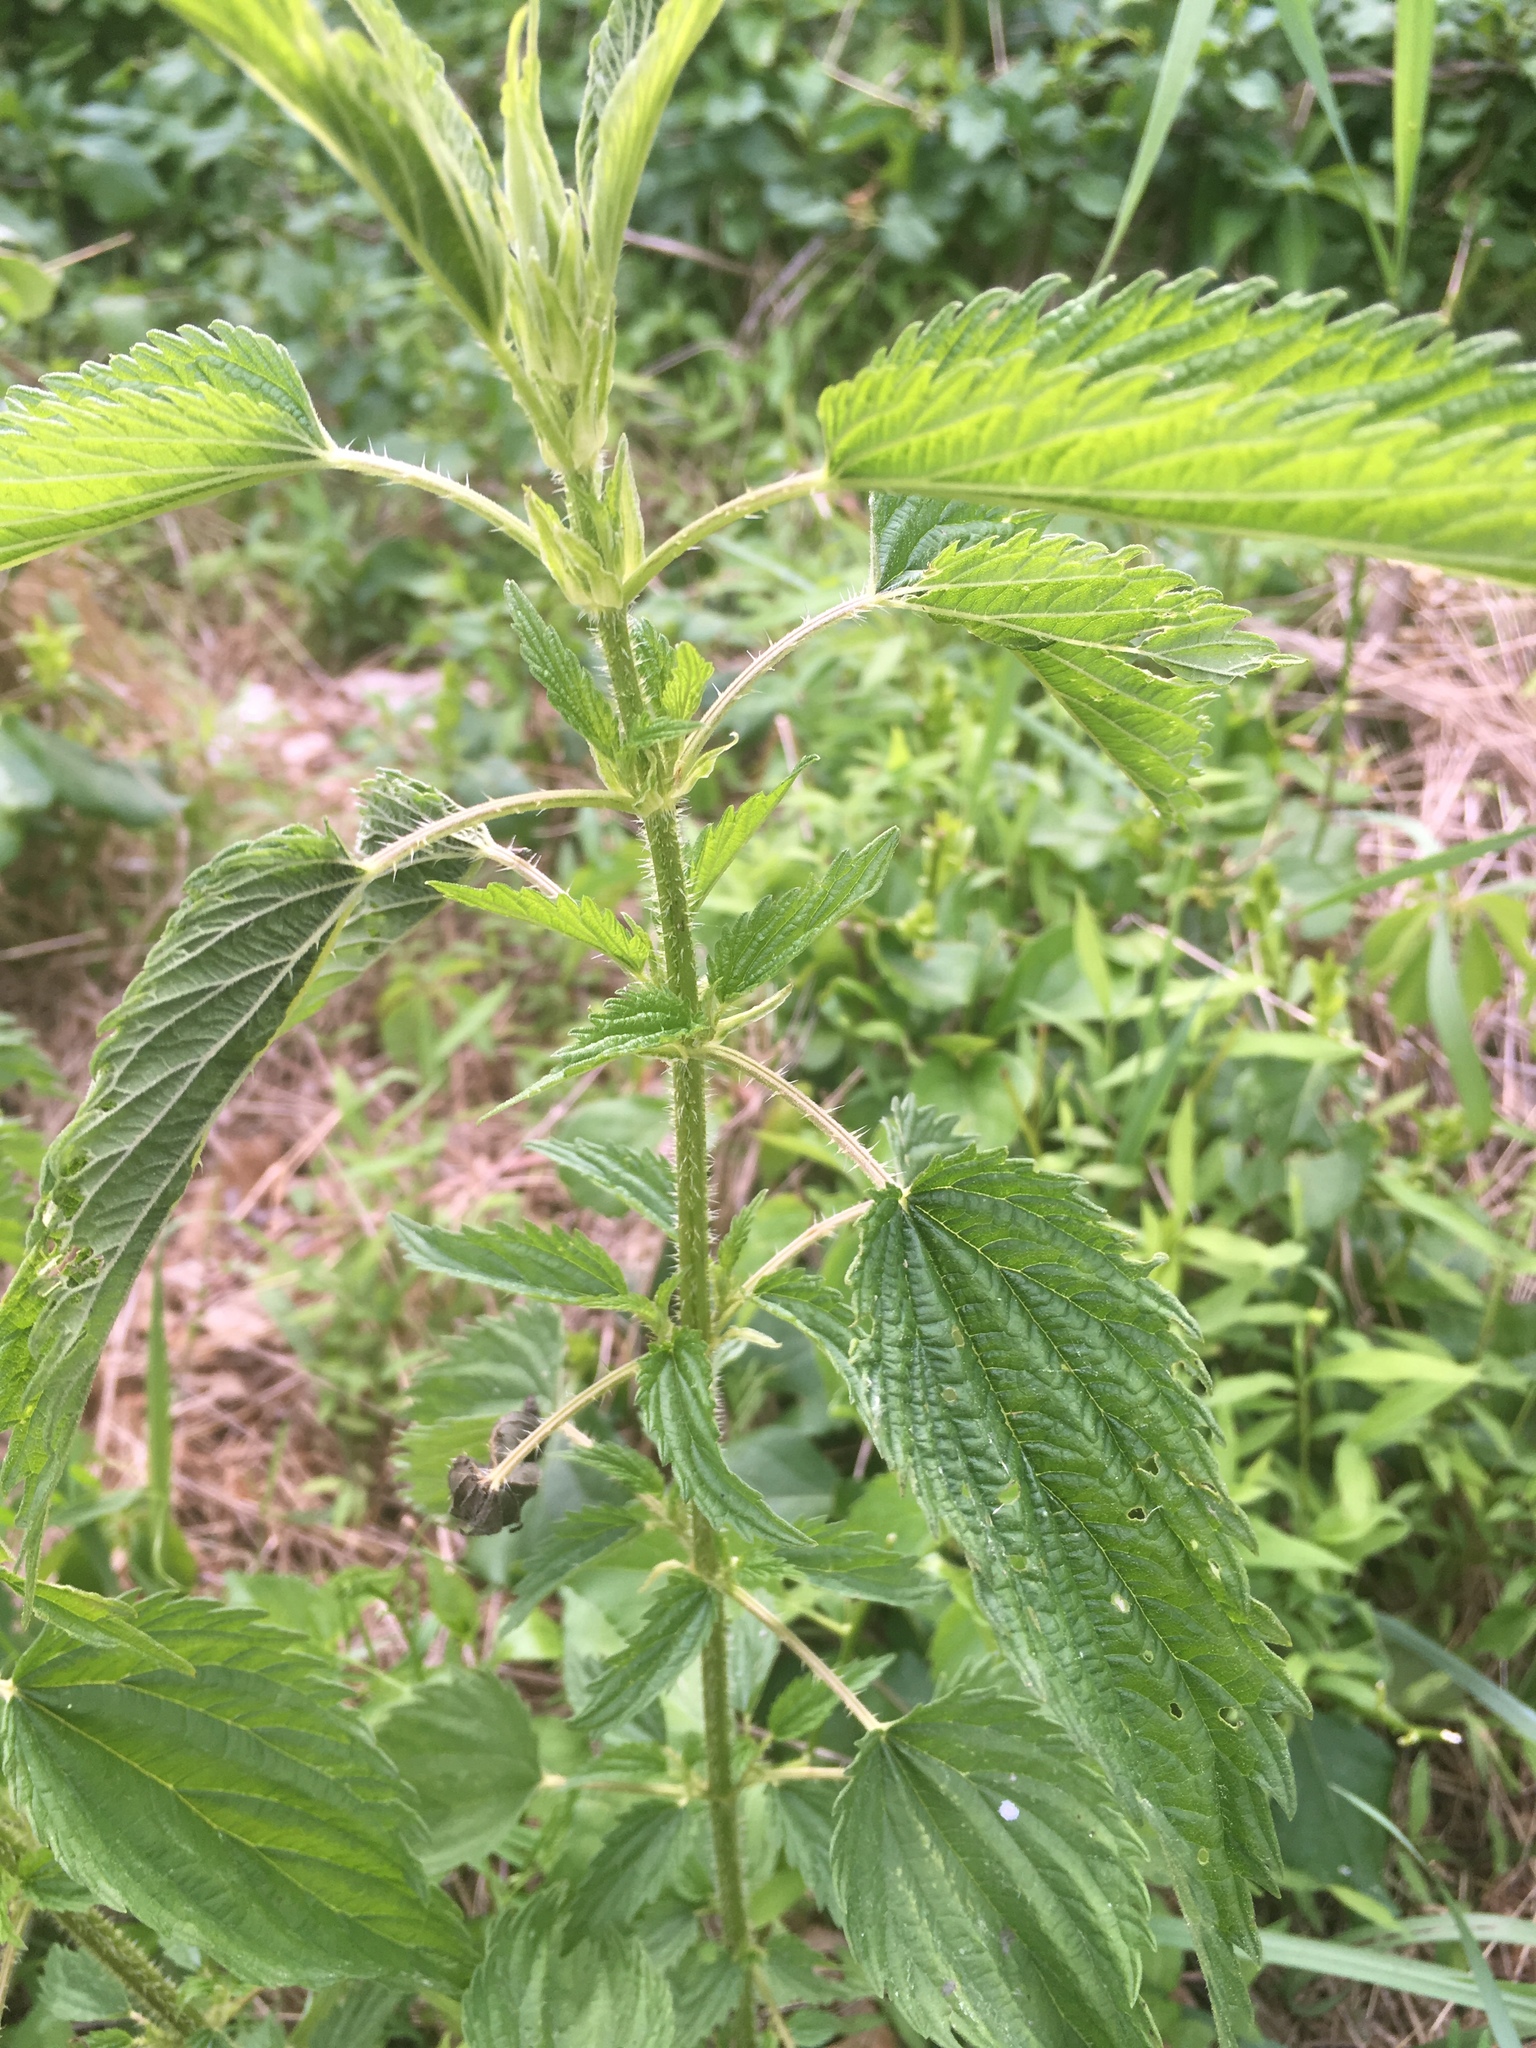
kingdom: Plantae
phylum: Tracheophyta
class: Magnoliopsida
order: Rosales
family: Urticaceae
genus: Urtica
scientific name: Urtica dioica
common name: Common nettle
